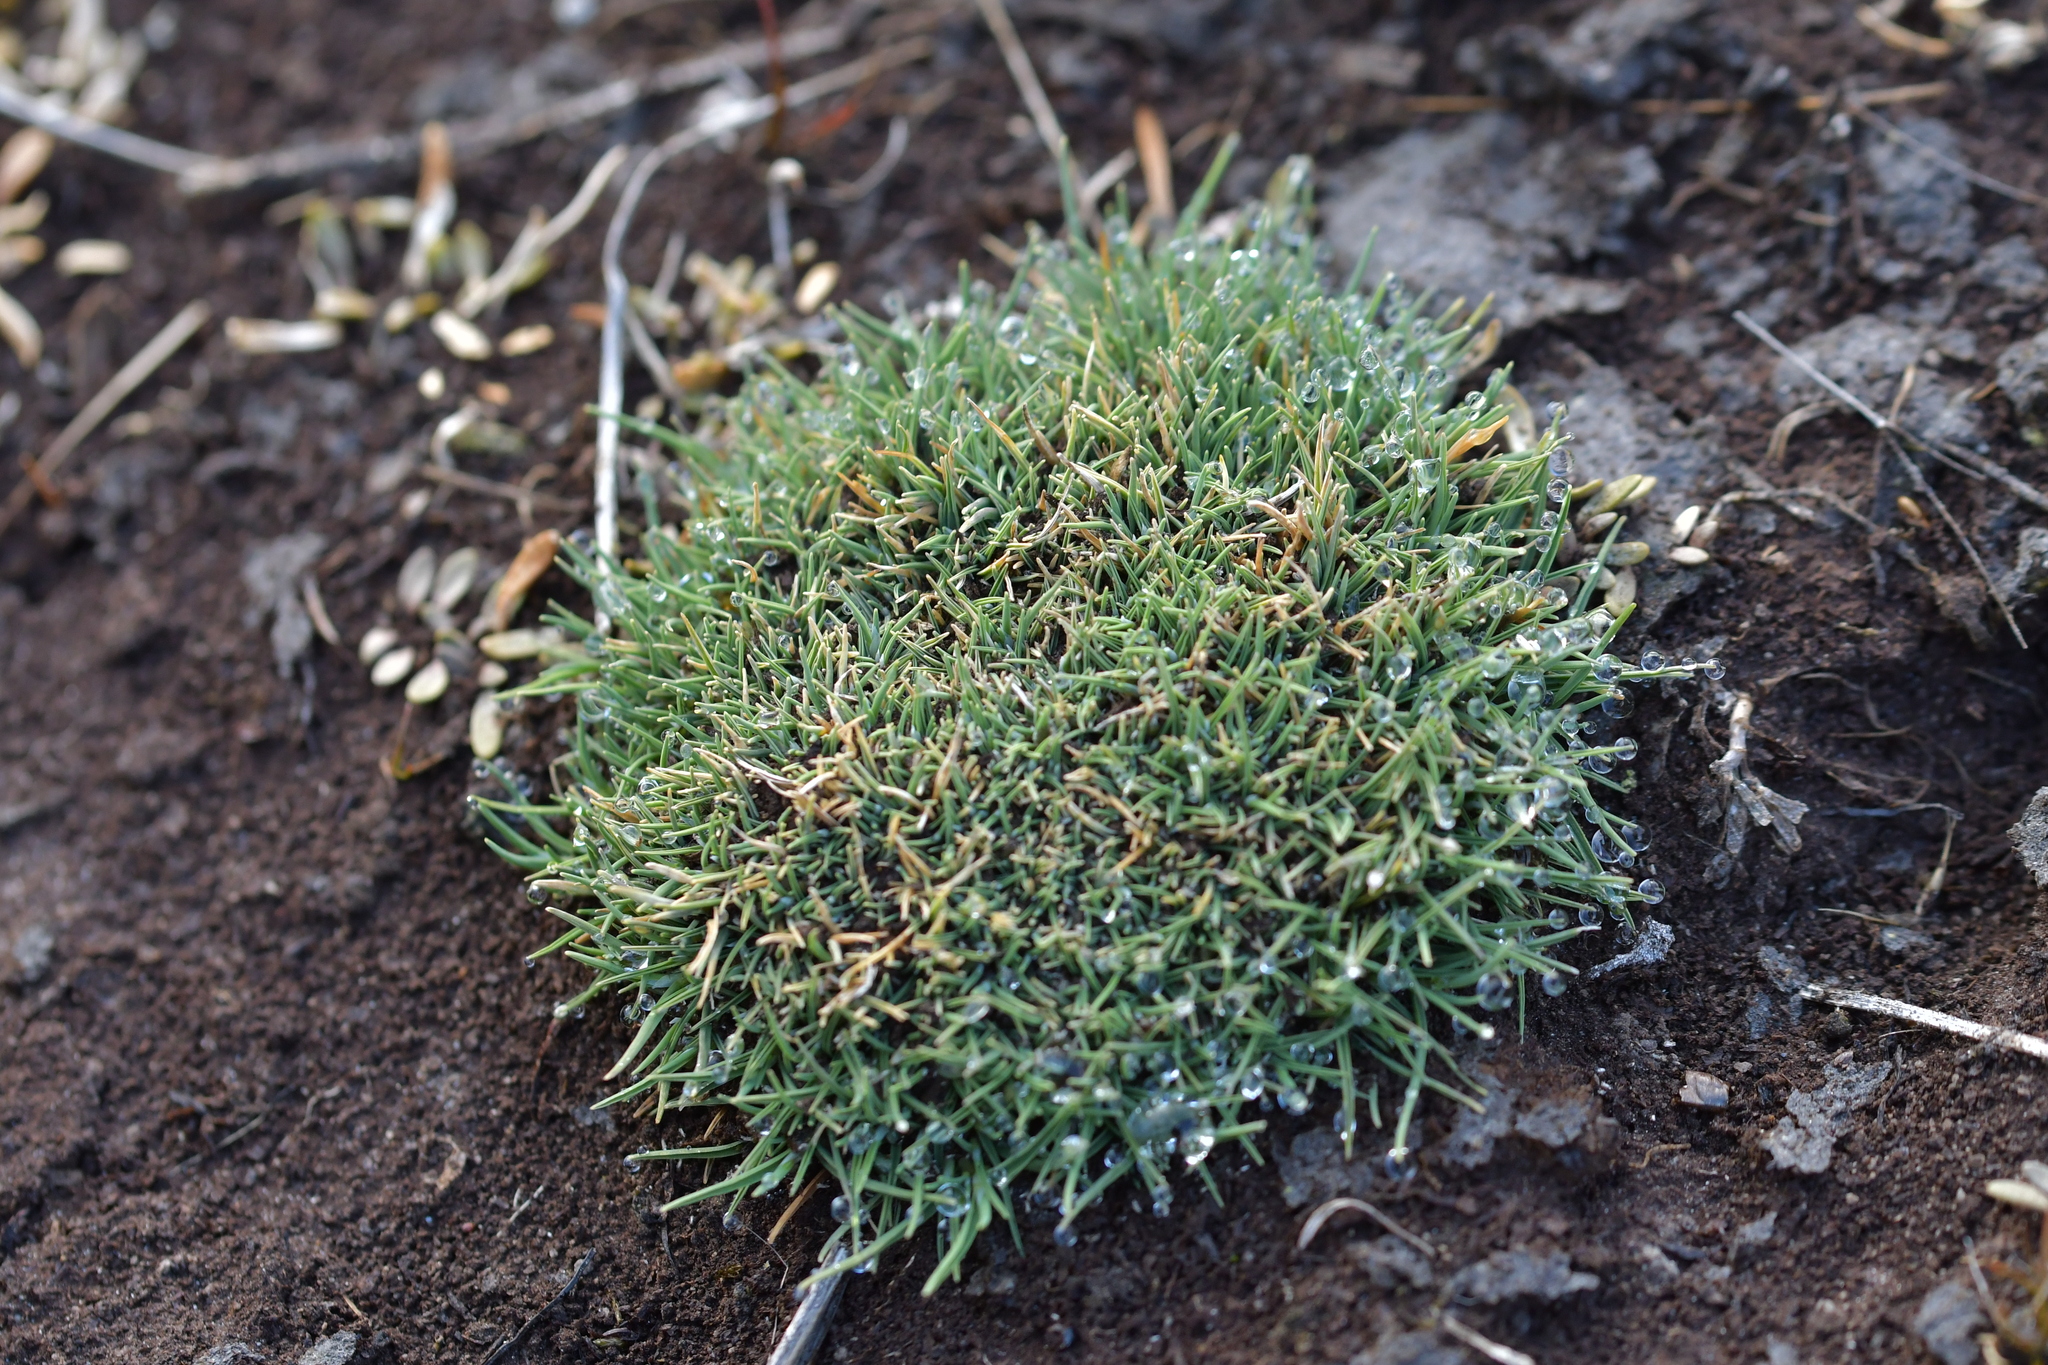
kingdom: Plantae
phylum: Tracheophyta
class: Liliopsida
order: Poales
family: Poaceae
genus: Agrostis
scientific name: Agrostis muscosa
